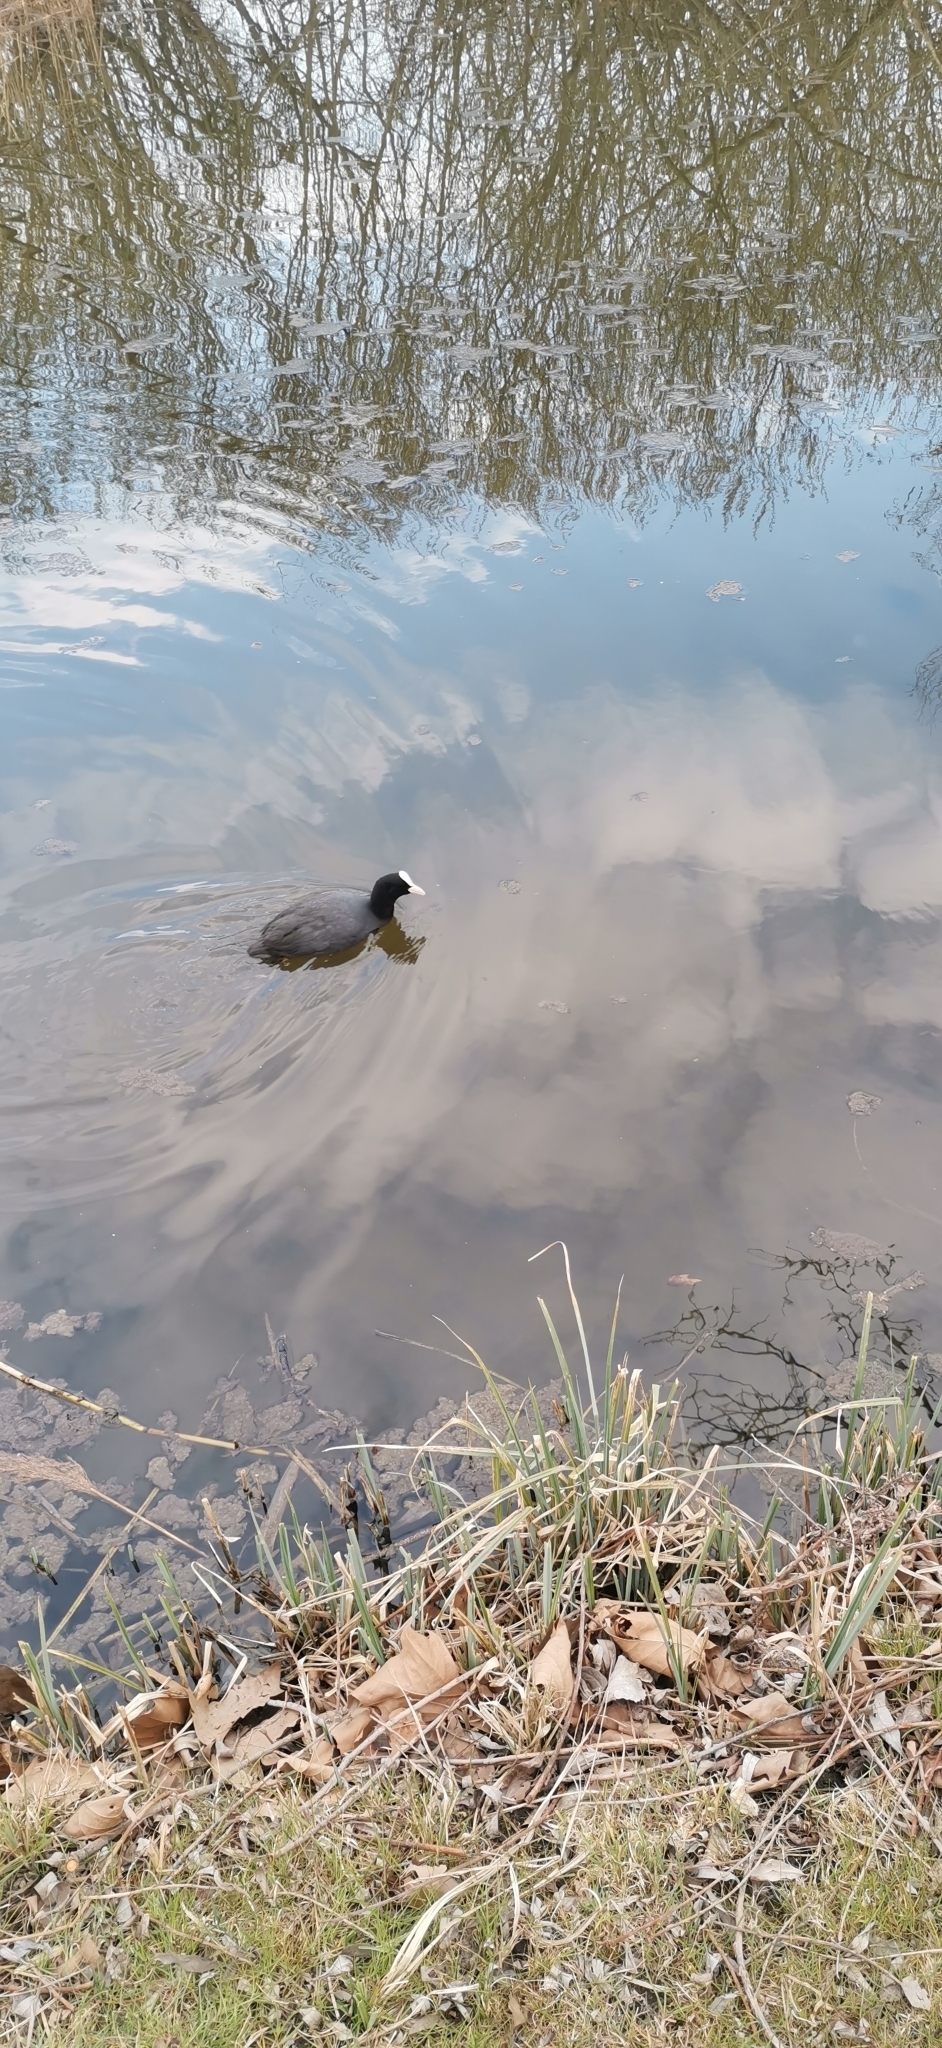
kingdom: Animalia
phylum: Chordata
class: Aves
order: Gruiformes
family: Rallidae
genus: Fulica
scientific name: Fulica atra
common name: Eurasian coot
